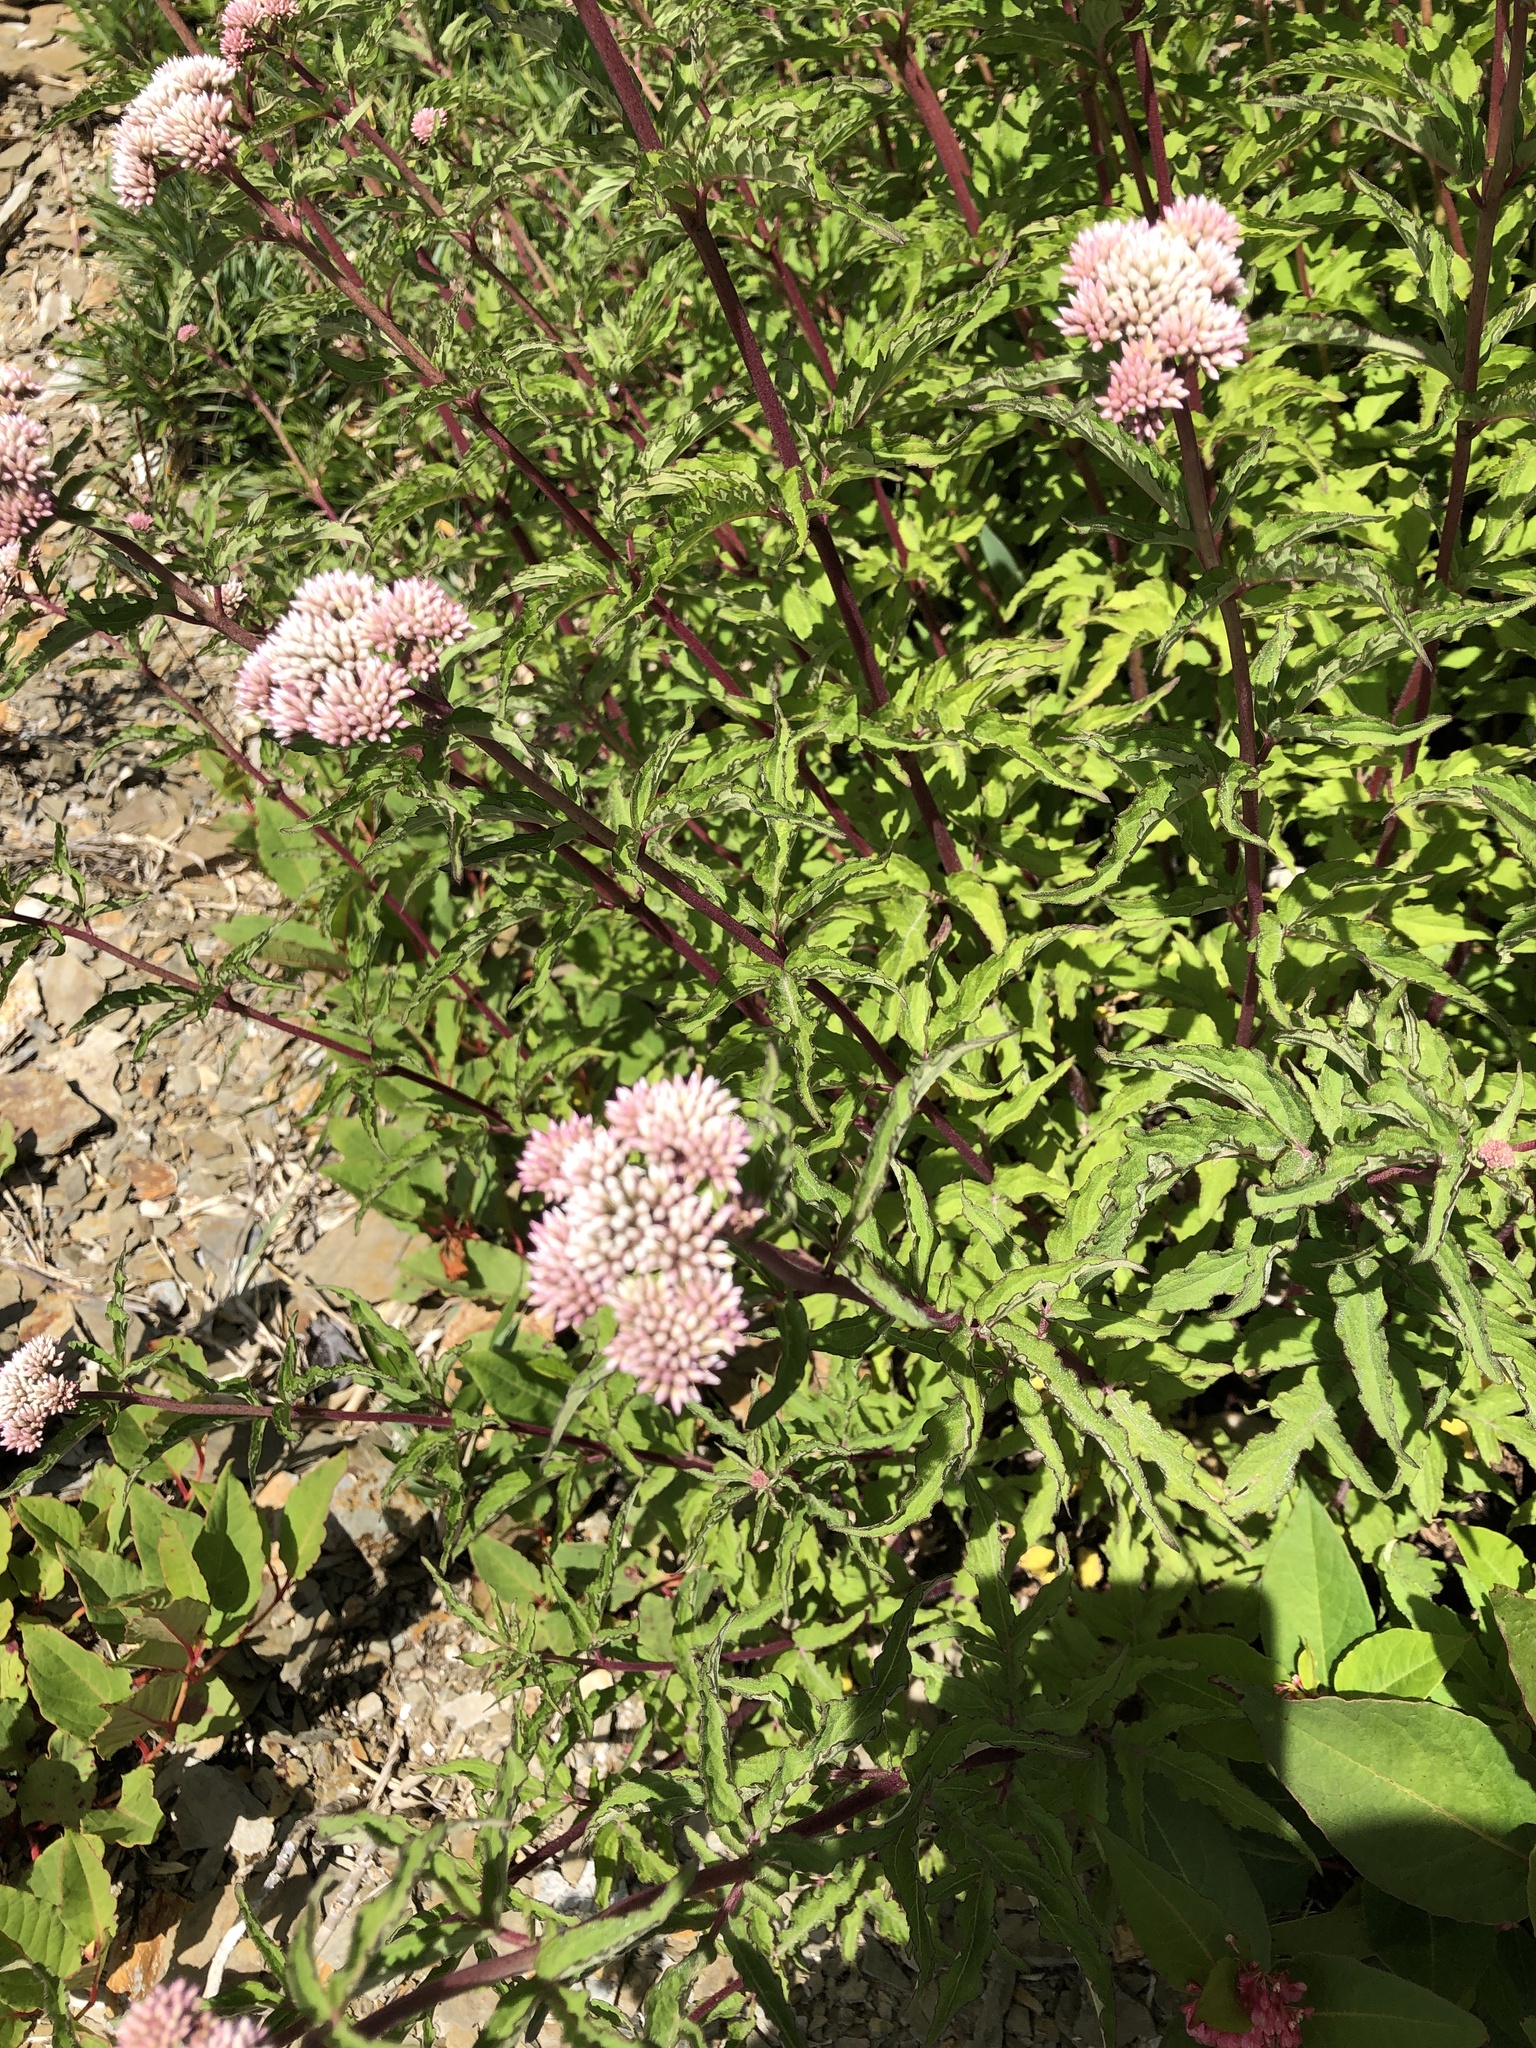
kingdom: Plantae
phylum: Tracheophyta
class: Magnoliopsida
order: Asterales
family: Asteraceae
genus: Eupatorium
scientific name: Eupatorium formosanum
